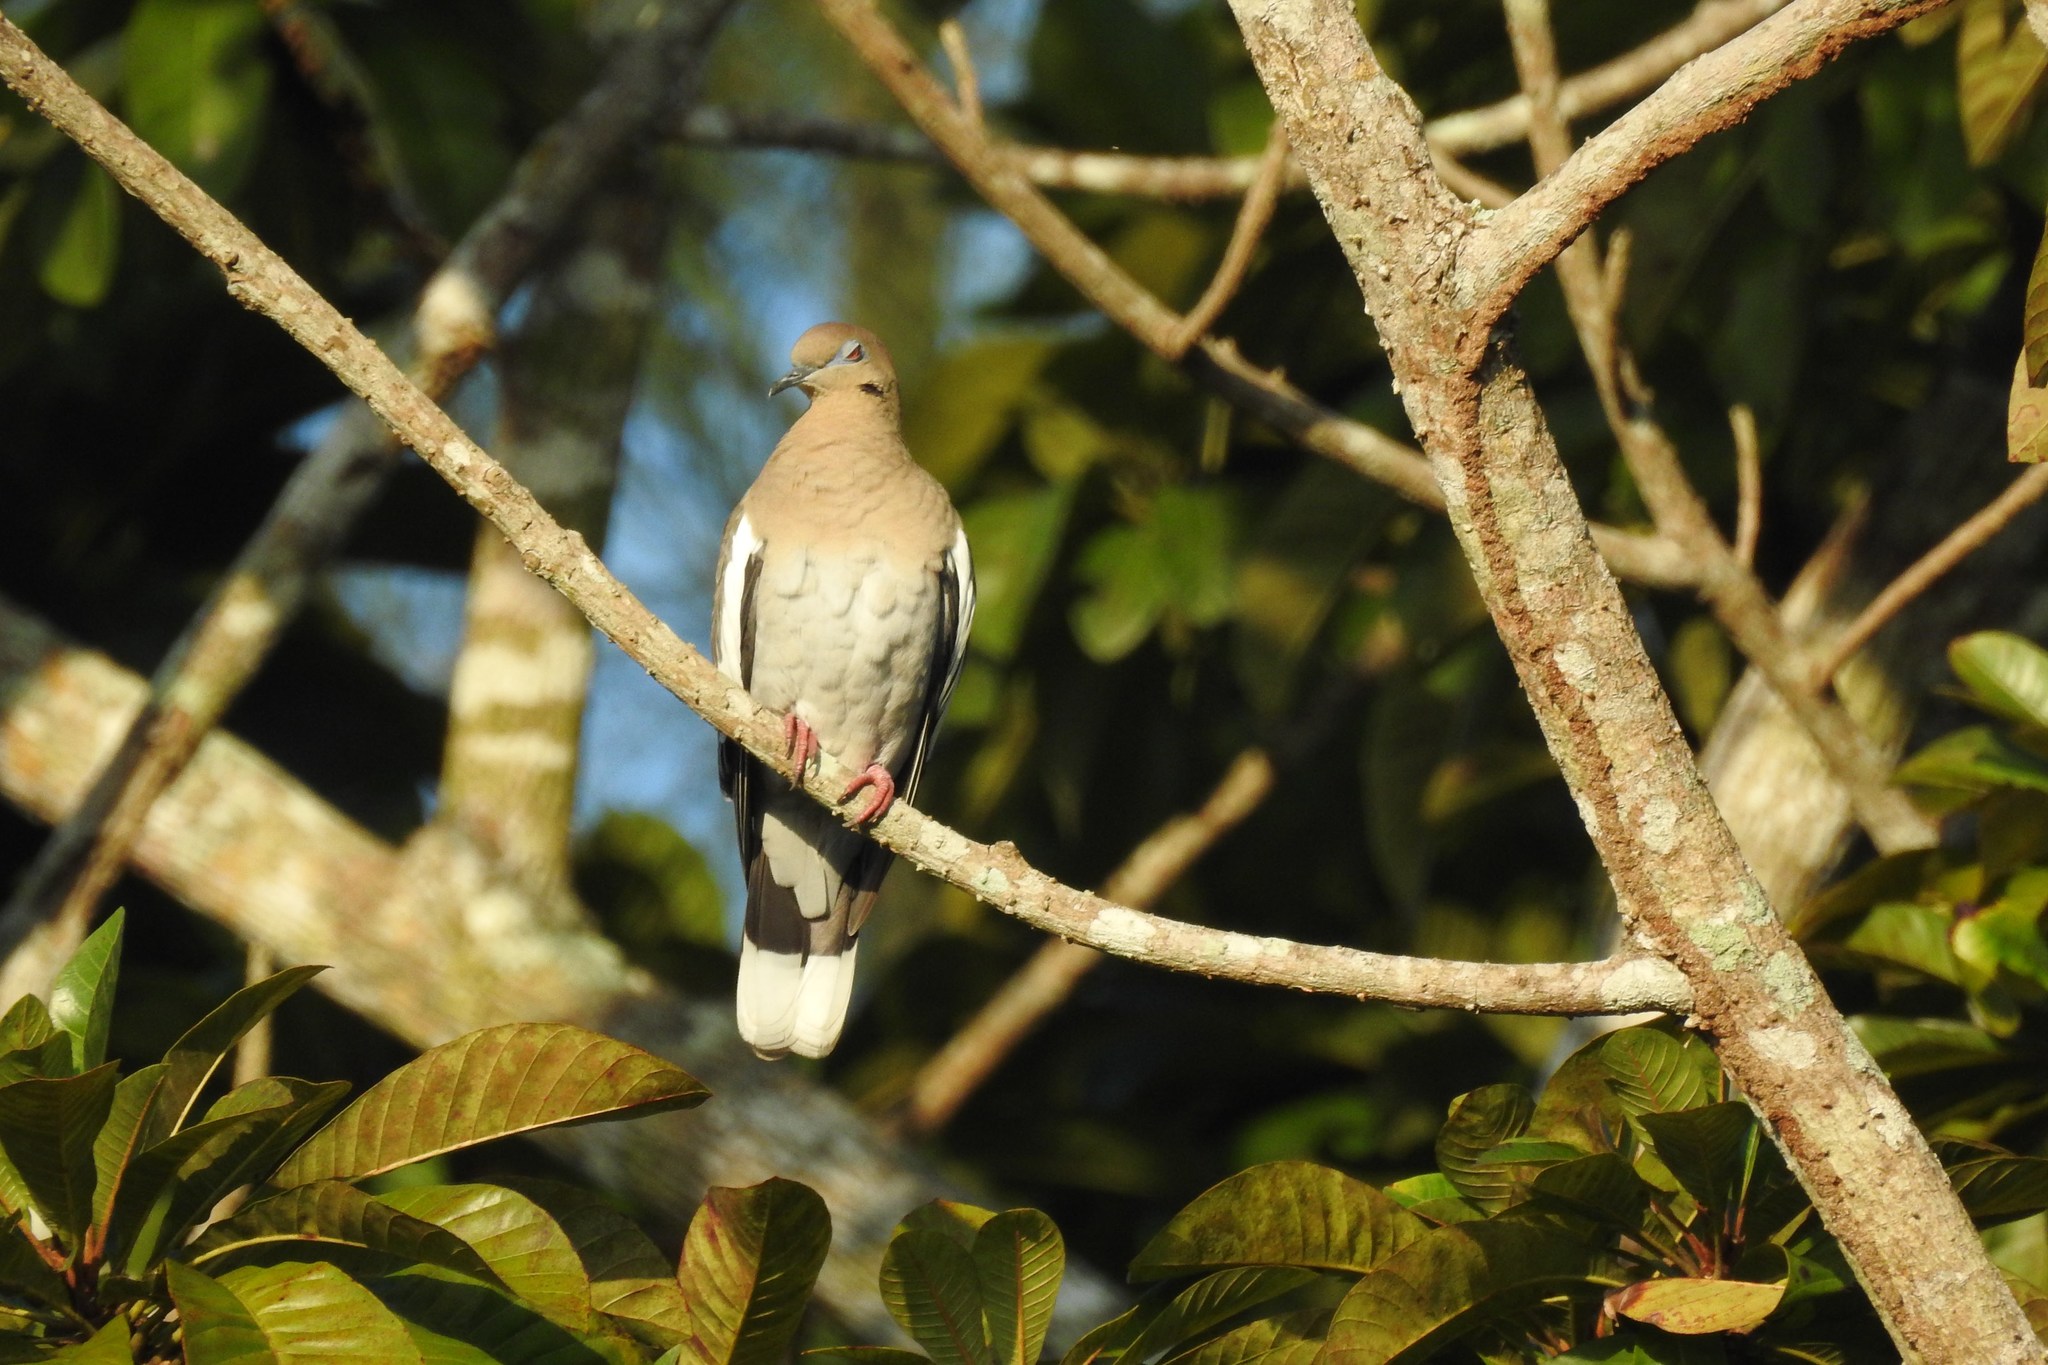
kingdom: Animalia
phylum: Chordata
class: Aves
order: Columbiformes
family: Columbidae
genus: Zenaida
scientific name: Zenaida asiatica
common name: White-winged dove
